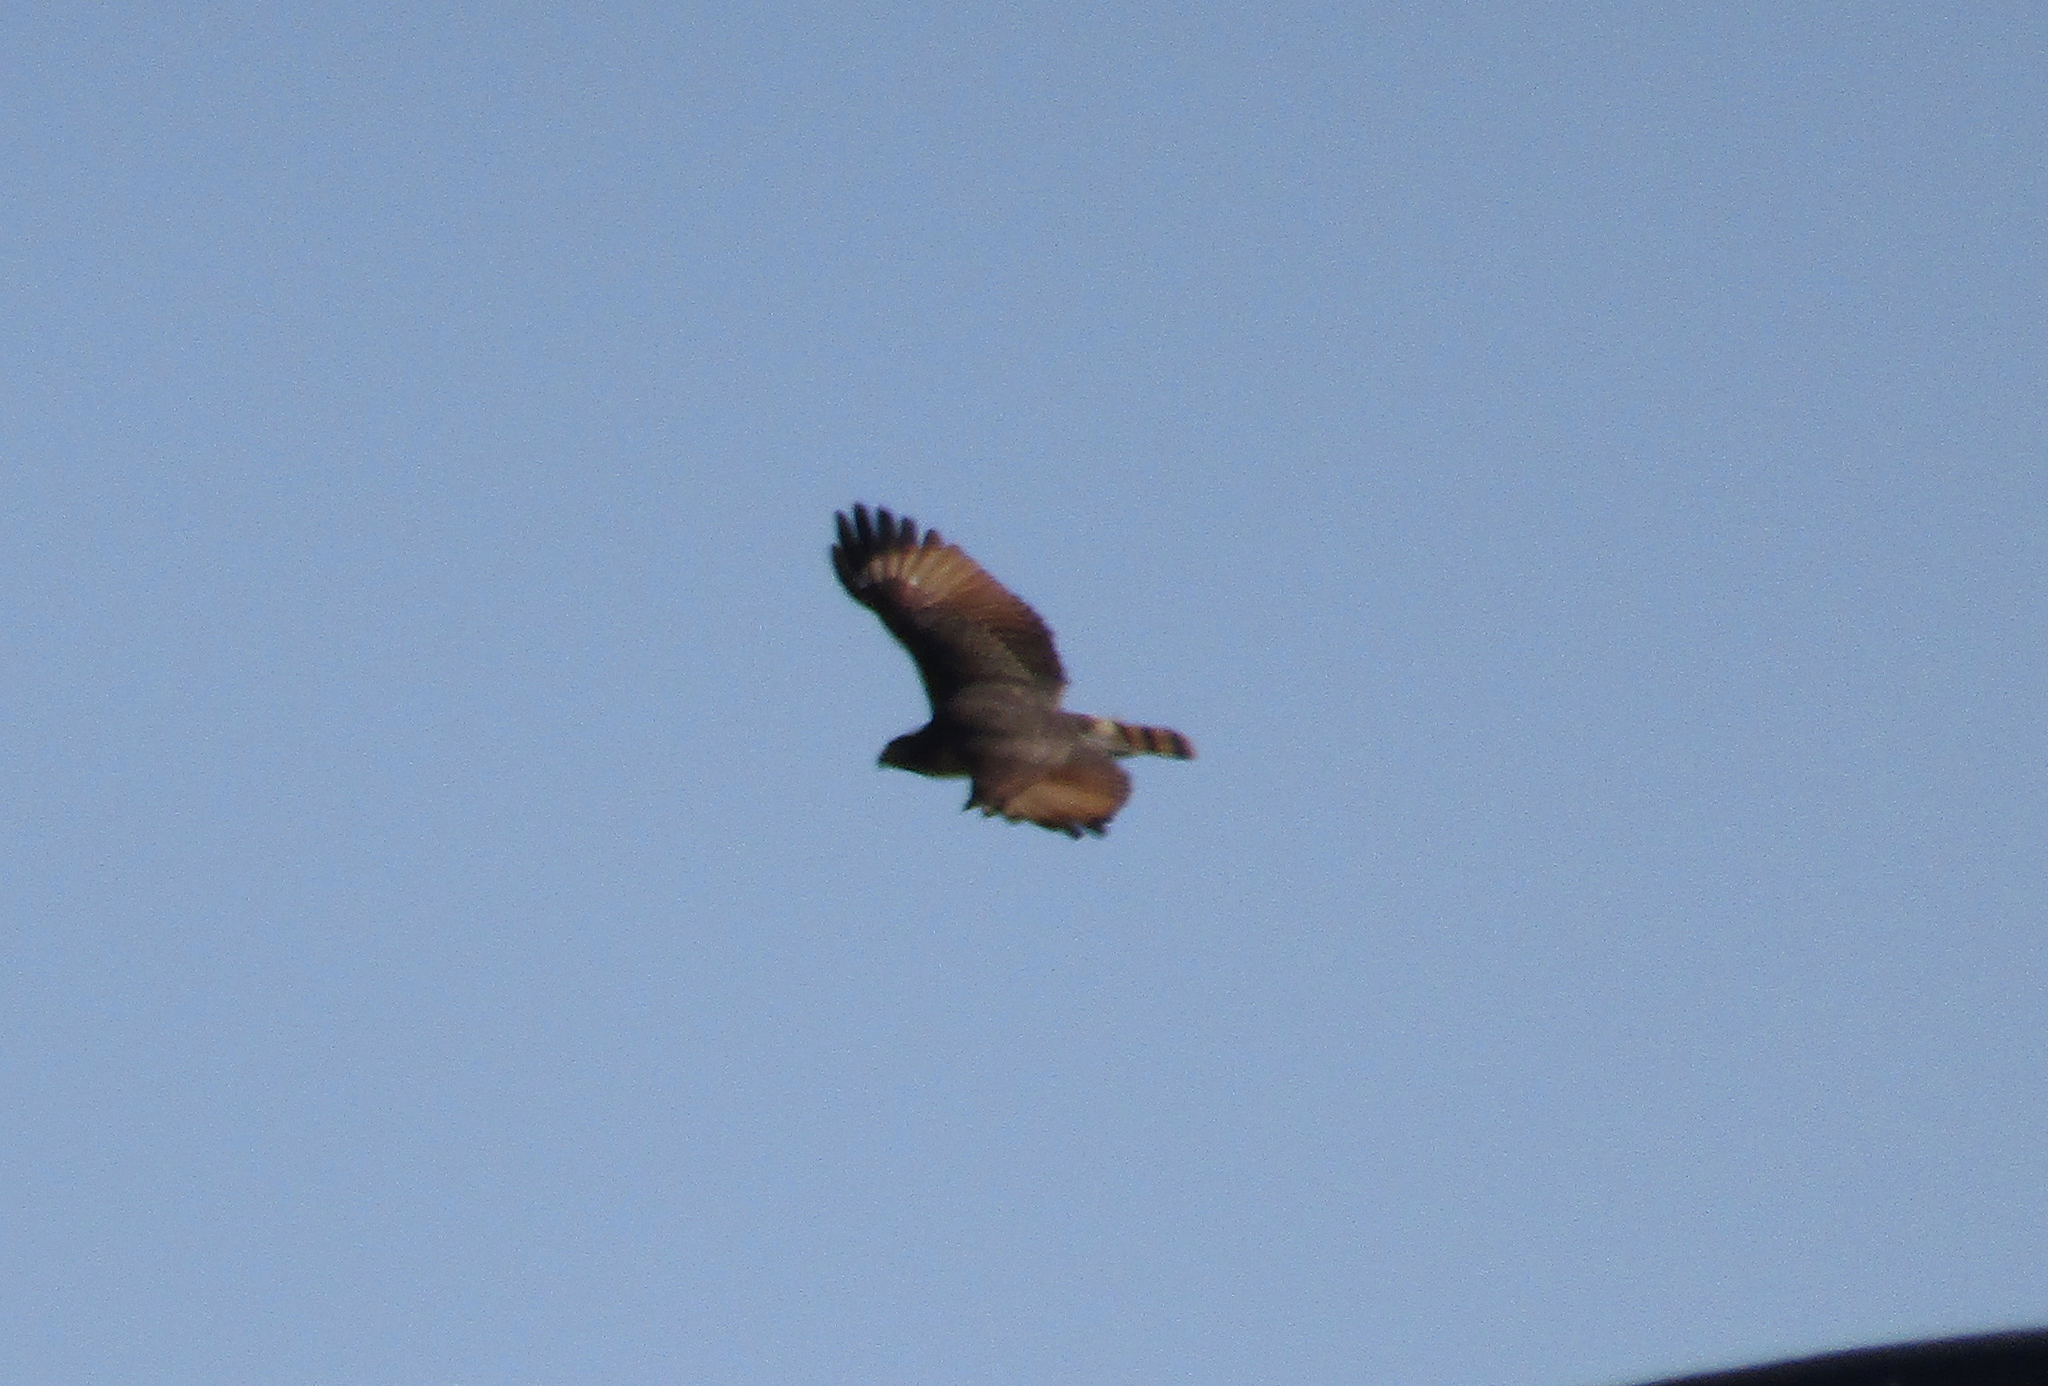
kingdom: Animalia
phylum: Chordata
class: Aves
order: Accipitriformes
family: Accipitridae
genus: Rupornis
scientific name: Rupornis magnirostris
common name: Roadside hawk
